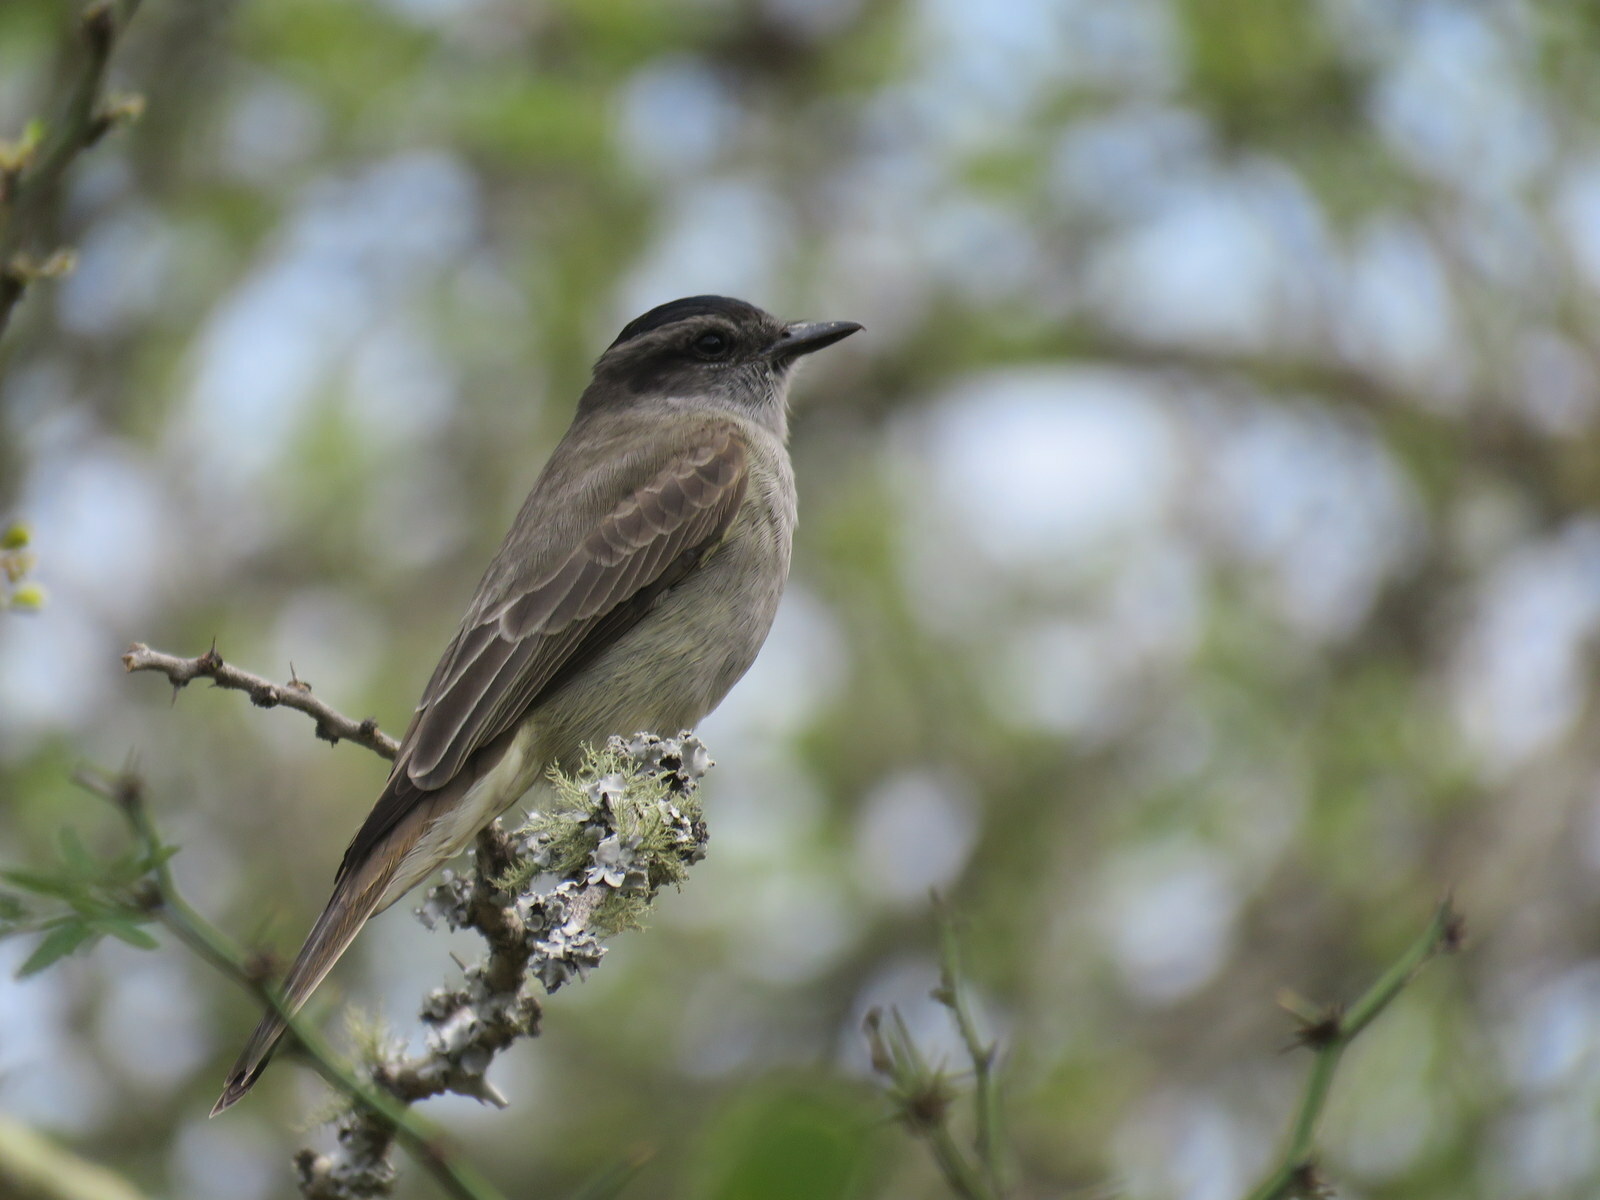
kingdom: Animalia
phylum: Chordata
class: Aves
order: Passeriformes
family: Tyrannidae
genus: Empidonomus
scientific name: Empidonomus aurantioatrocristatus
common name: Crowned slaty flycatcher
